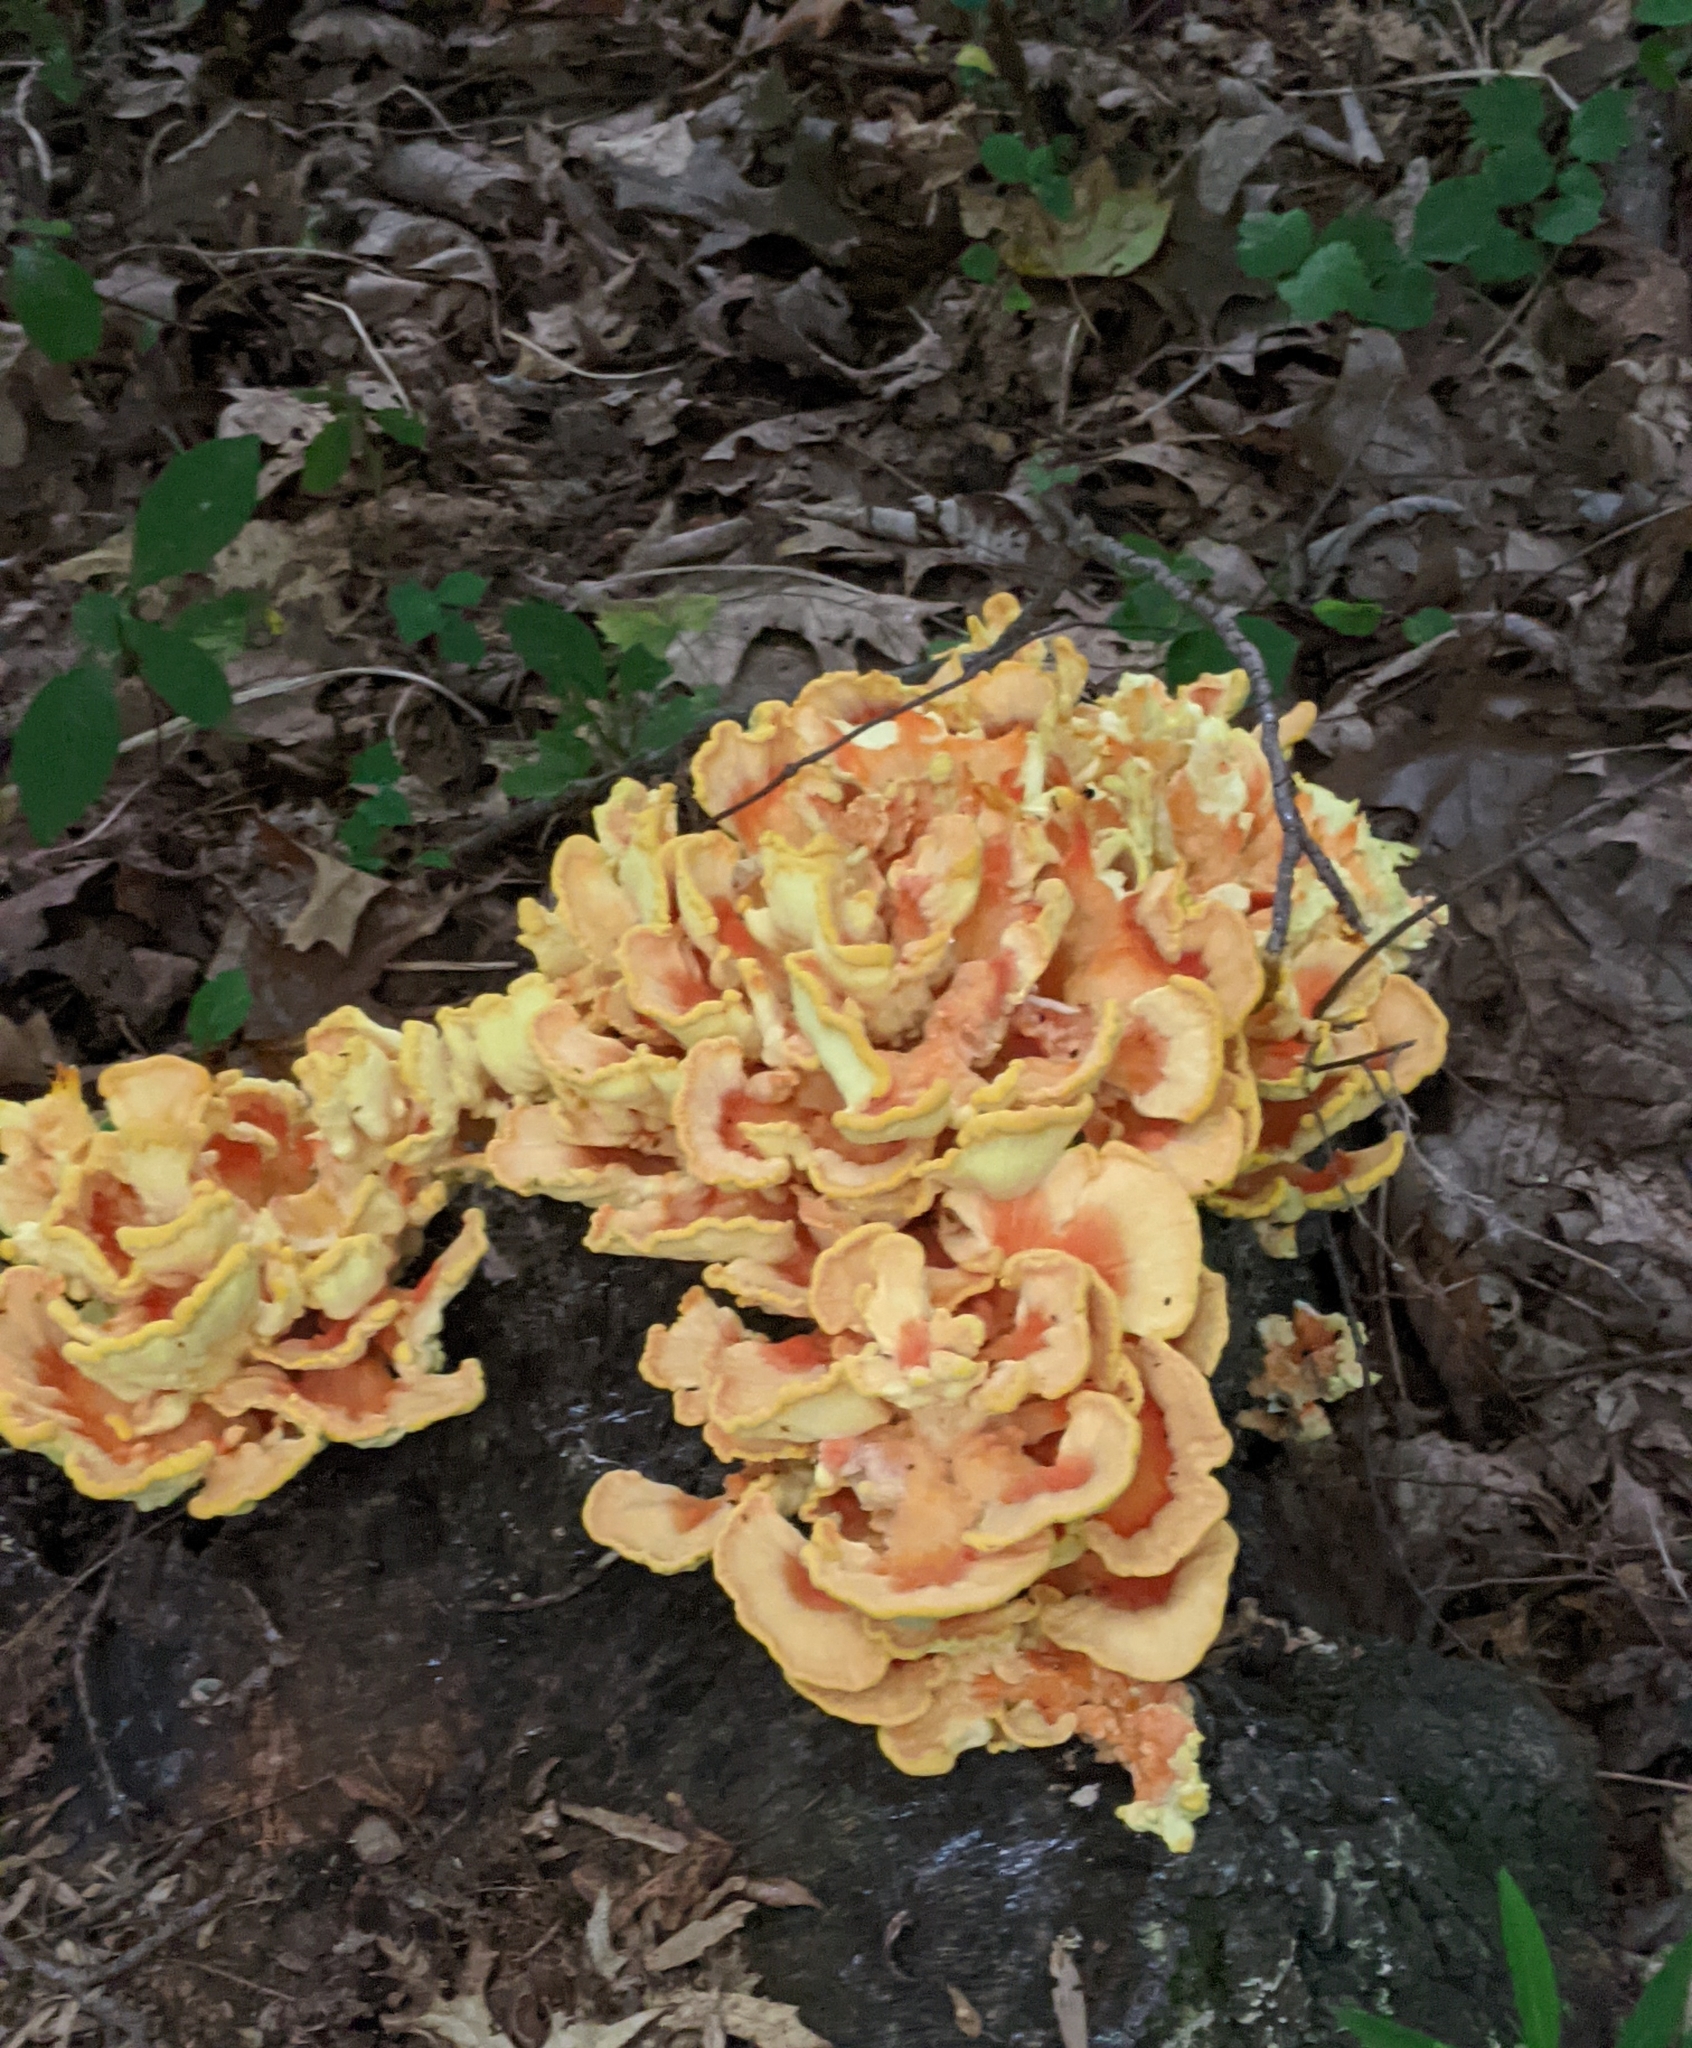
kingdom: Fungi
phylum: Basidiomycota
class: Agaricomycetes
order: Polyporales
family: Laetiporaceae
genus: Laetiporus
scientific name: Laetiporus sulphureus
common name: Chicken of the woods
